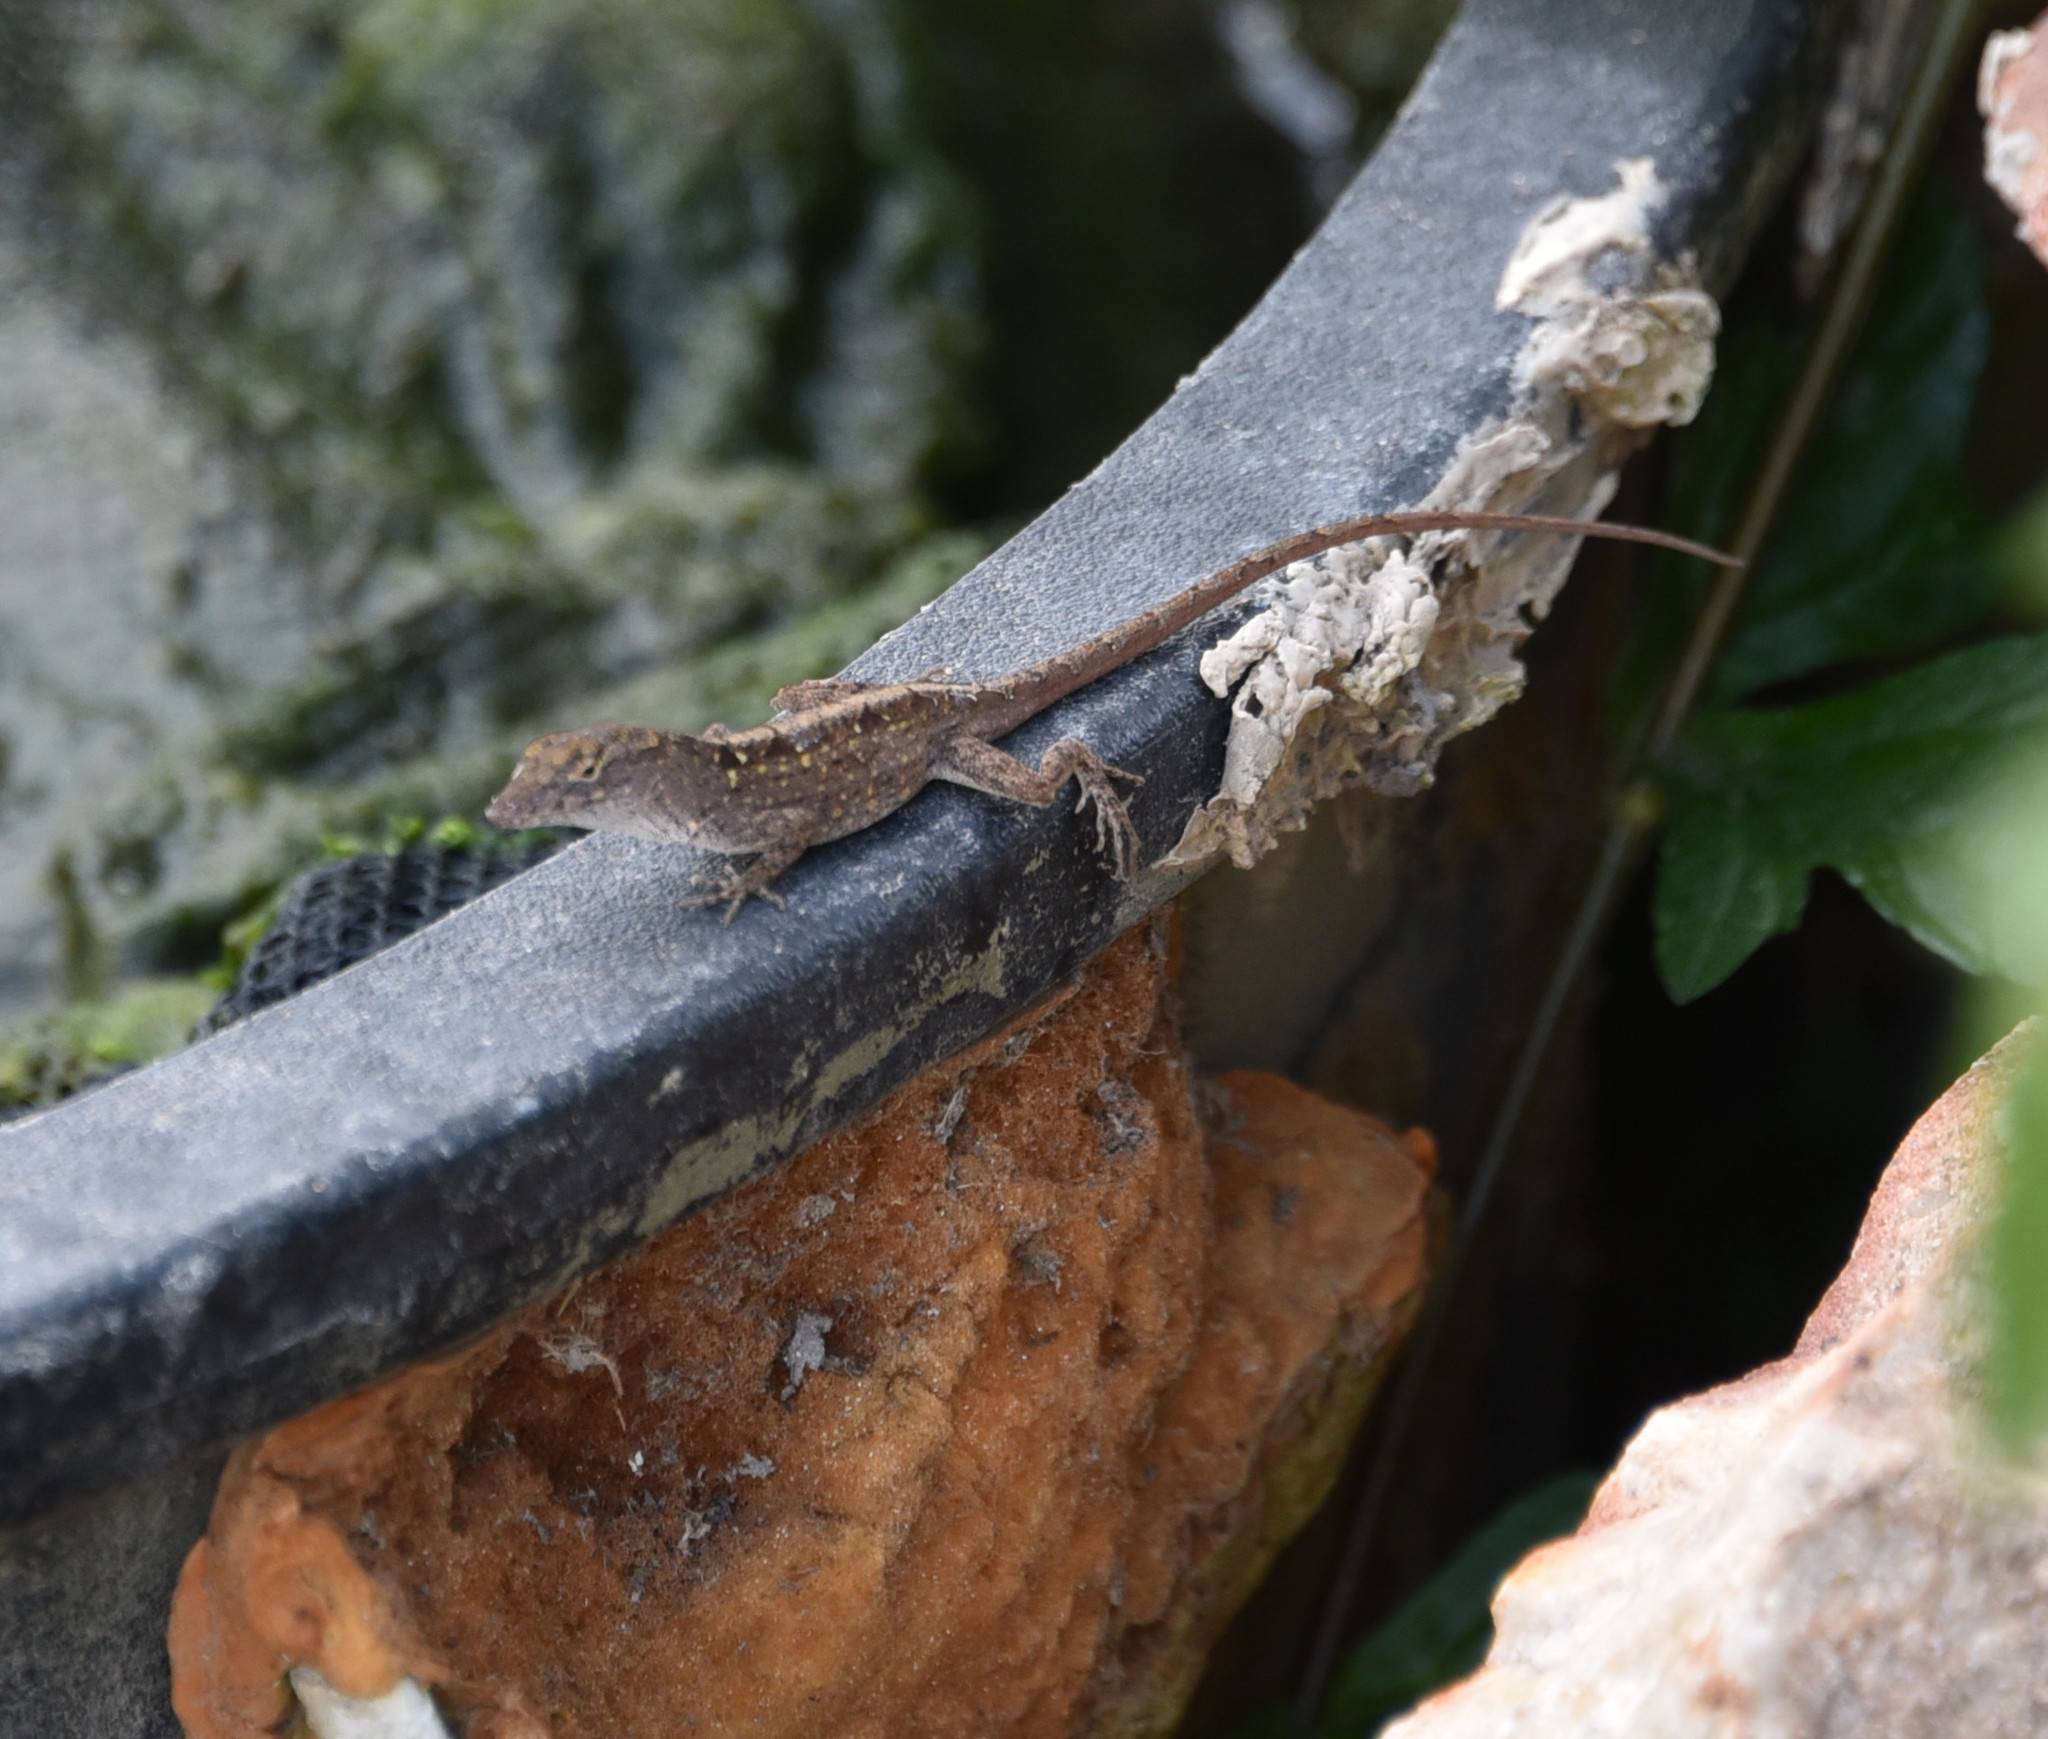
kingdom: Animalia
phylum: Chordata
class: Squamata
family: Dactyloidae
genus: Anolis
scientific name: Anolis sagrei
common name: Brown anole
